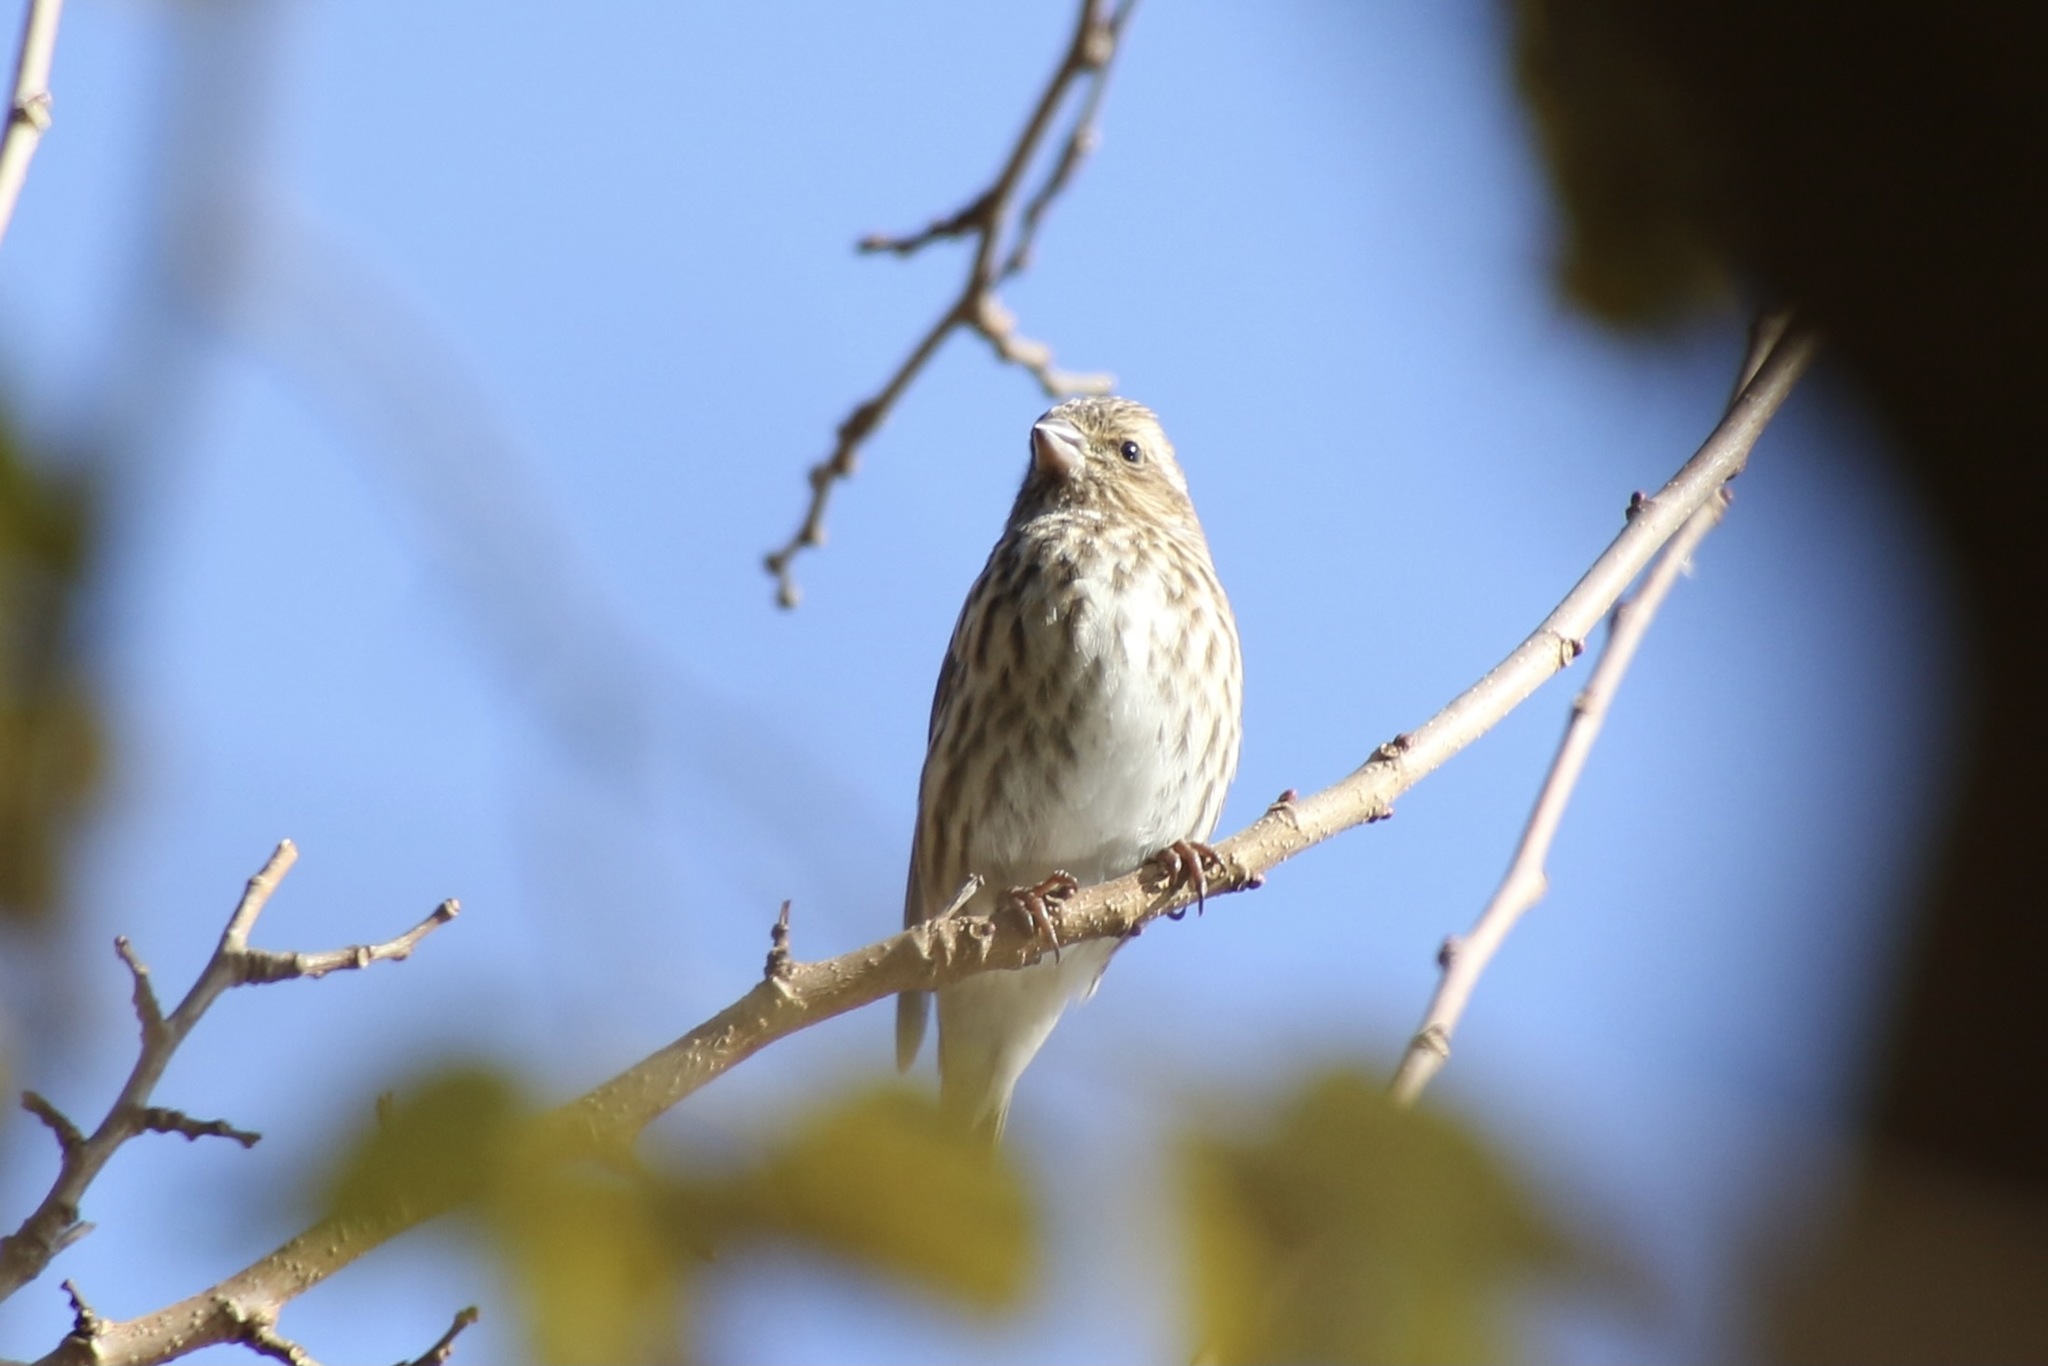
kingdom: Animalia
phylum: Chordata
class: Aves
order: Passeriformes
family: Fringillidae
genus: Haemorhous
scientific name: Haemorhous purpureus
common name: Purple finch
